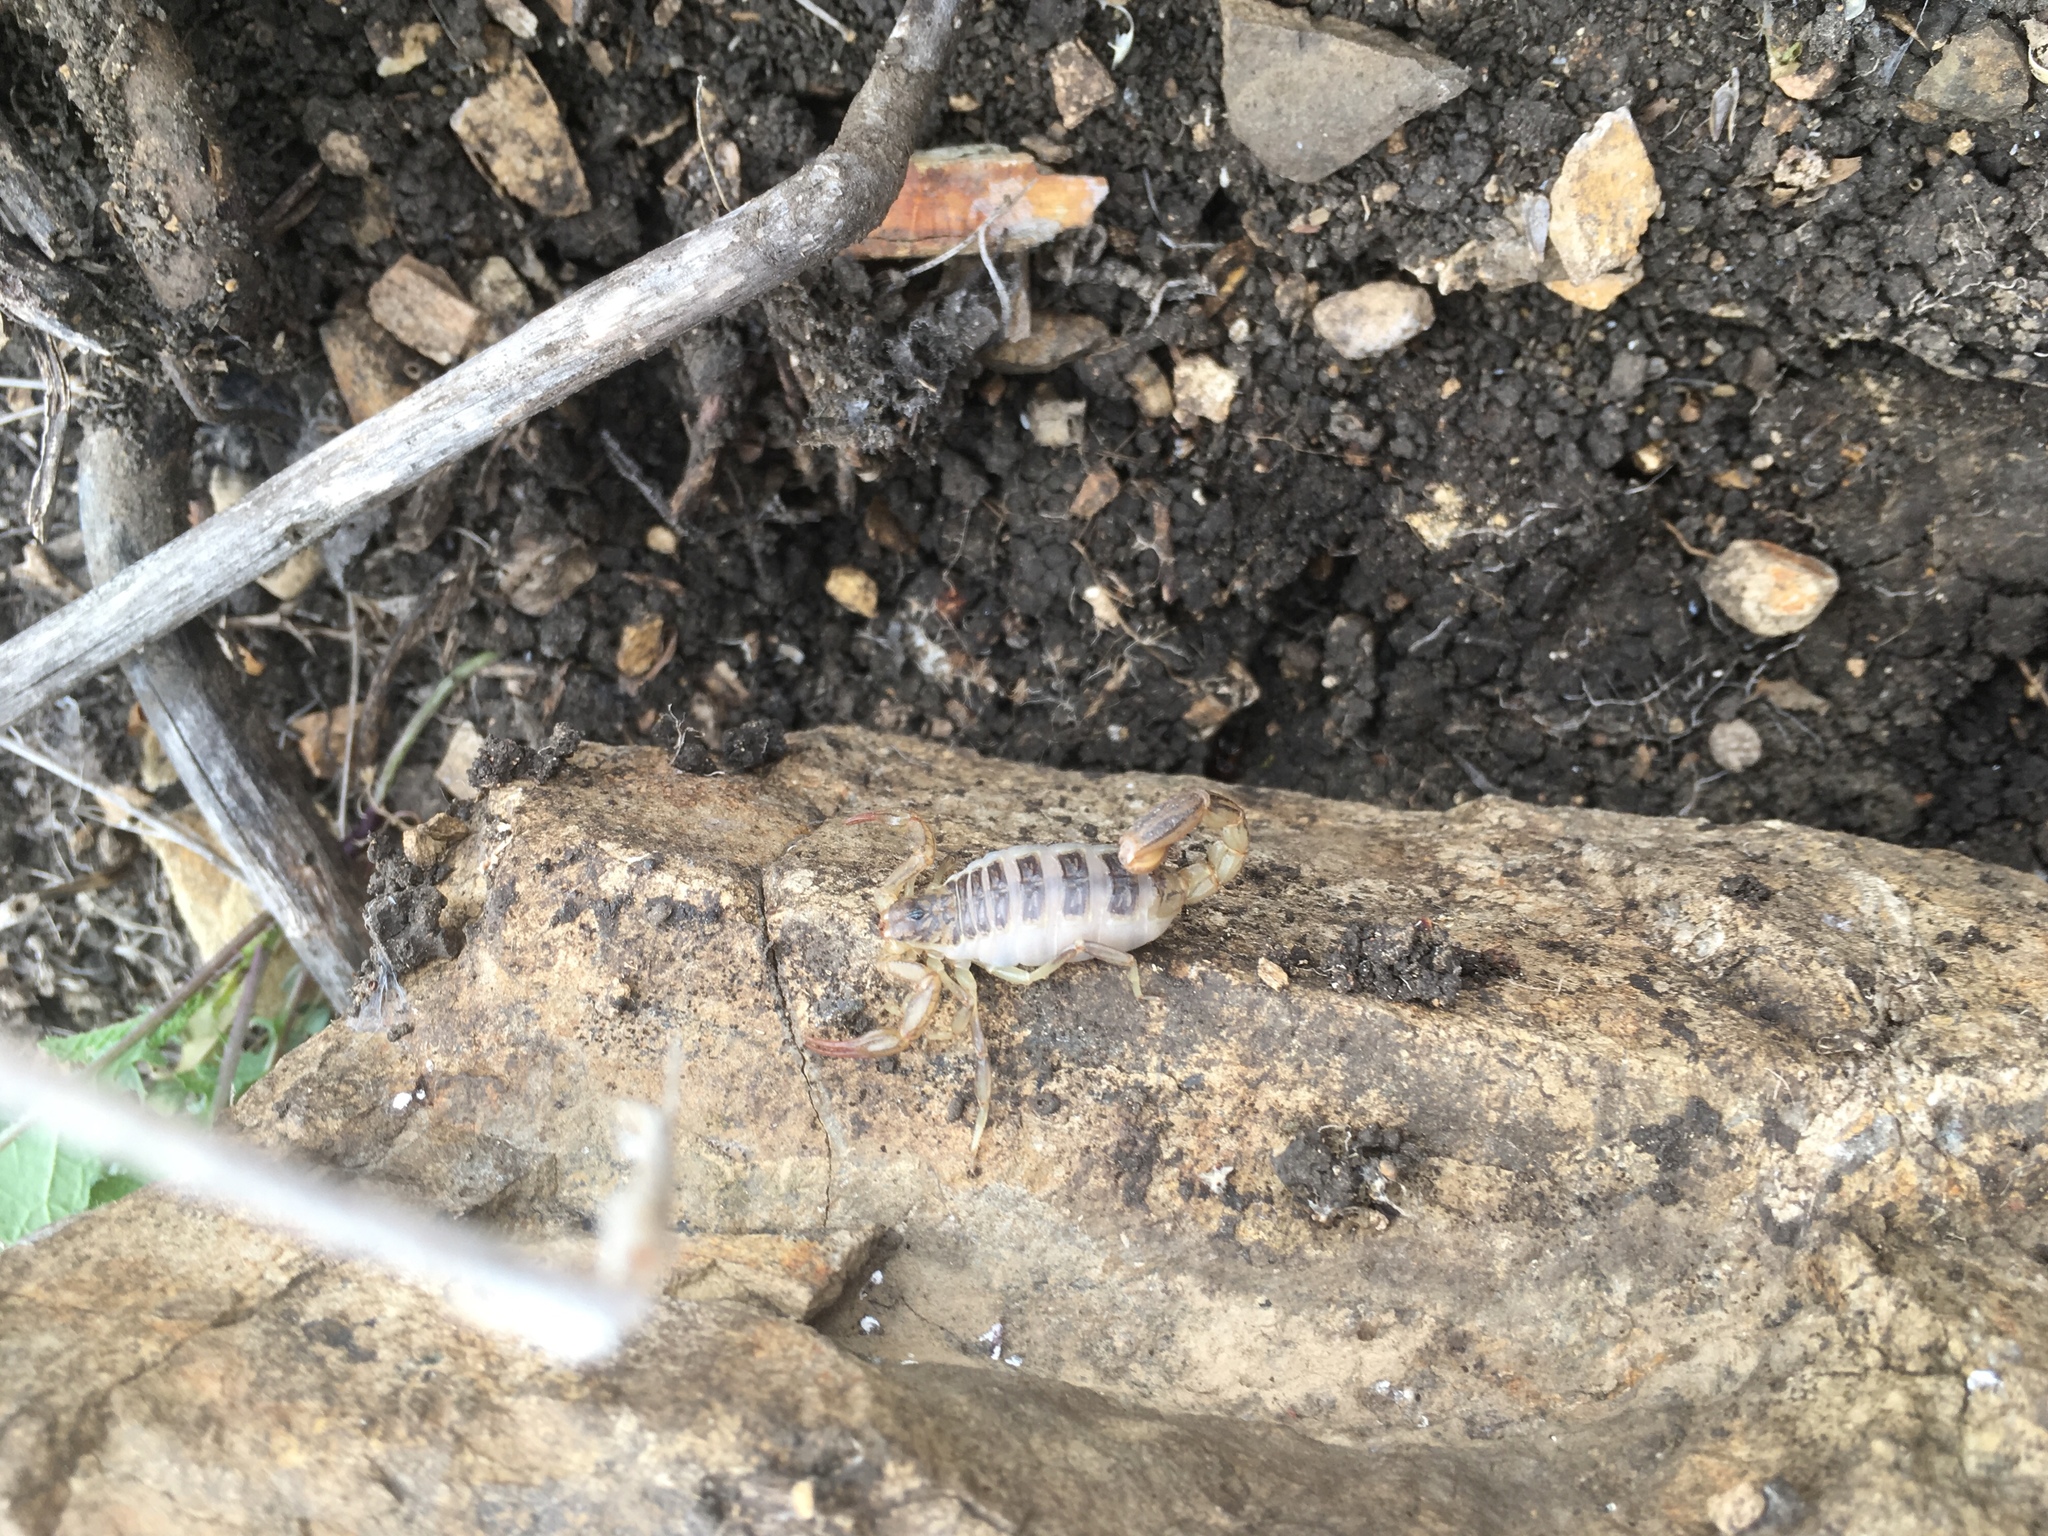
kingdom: Animalia
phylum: Arthropoda
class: Arachnida
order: Scorpiones
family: Vaejovidae
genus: Paruroctonus
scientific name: Paruroctonus silvestrii
